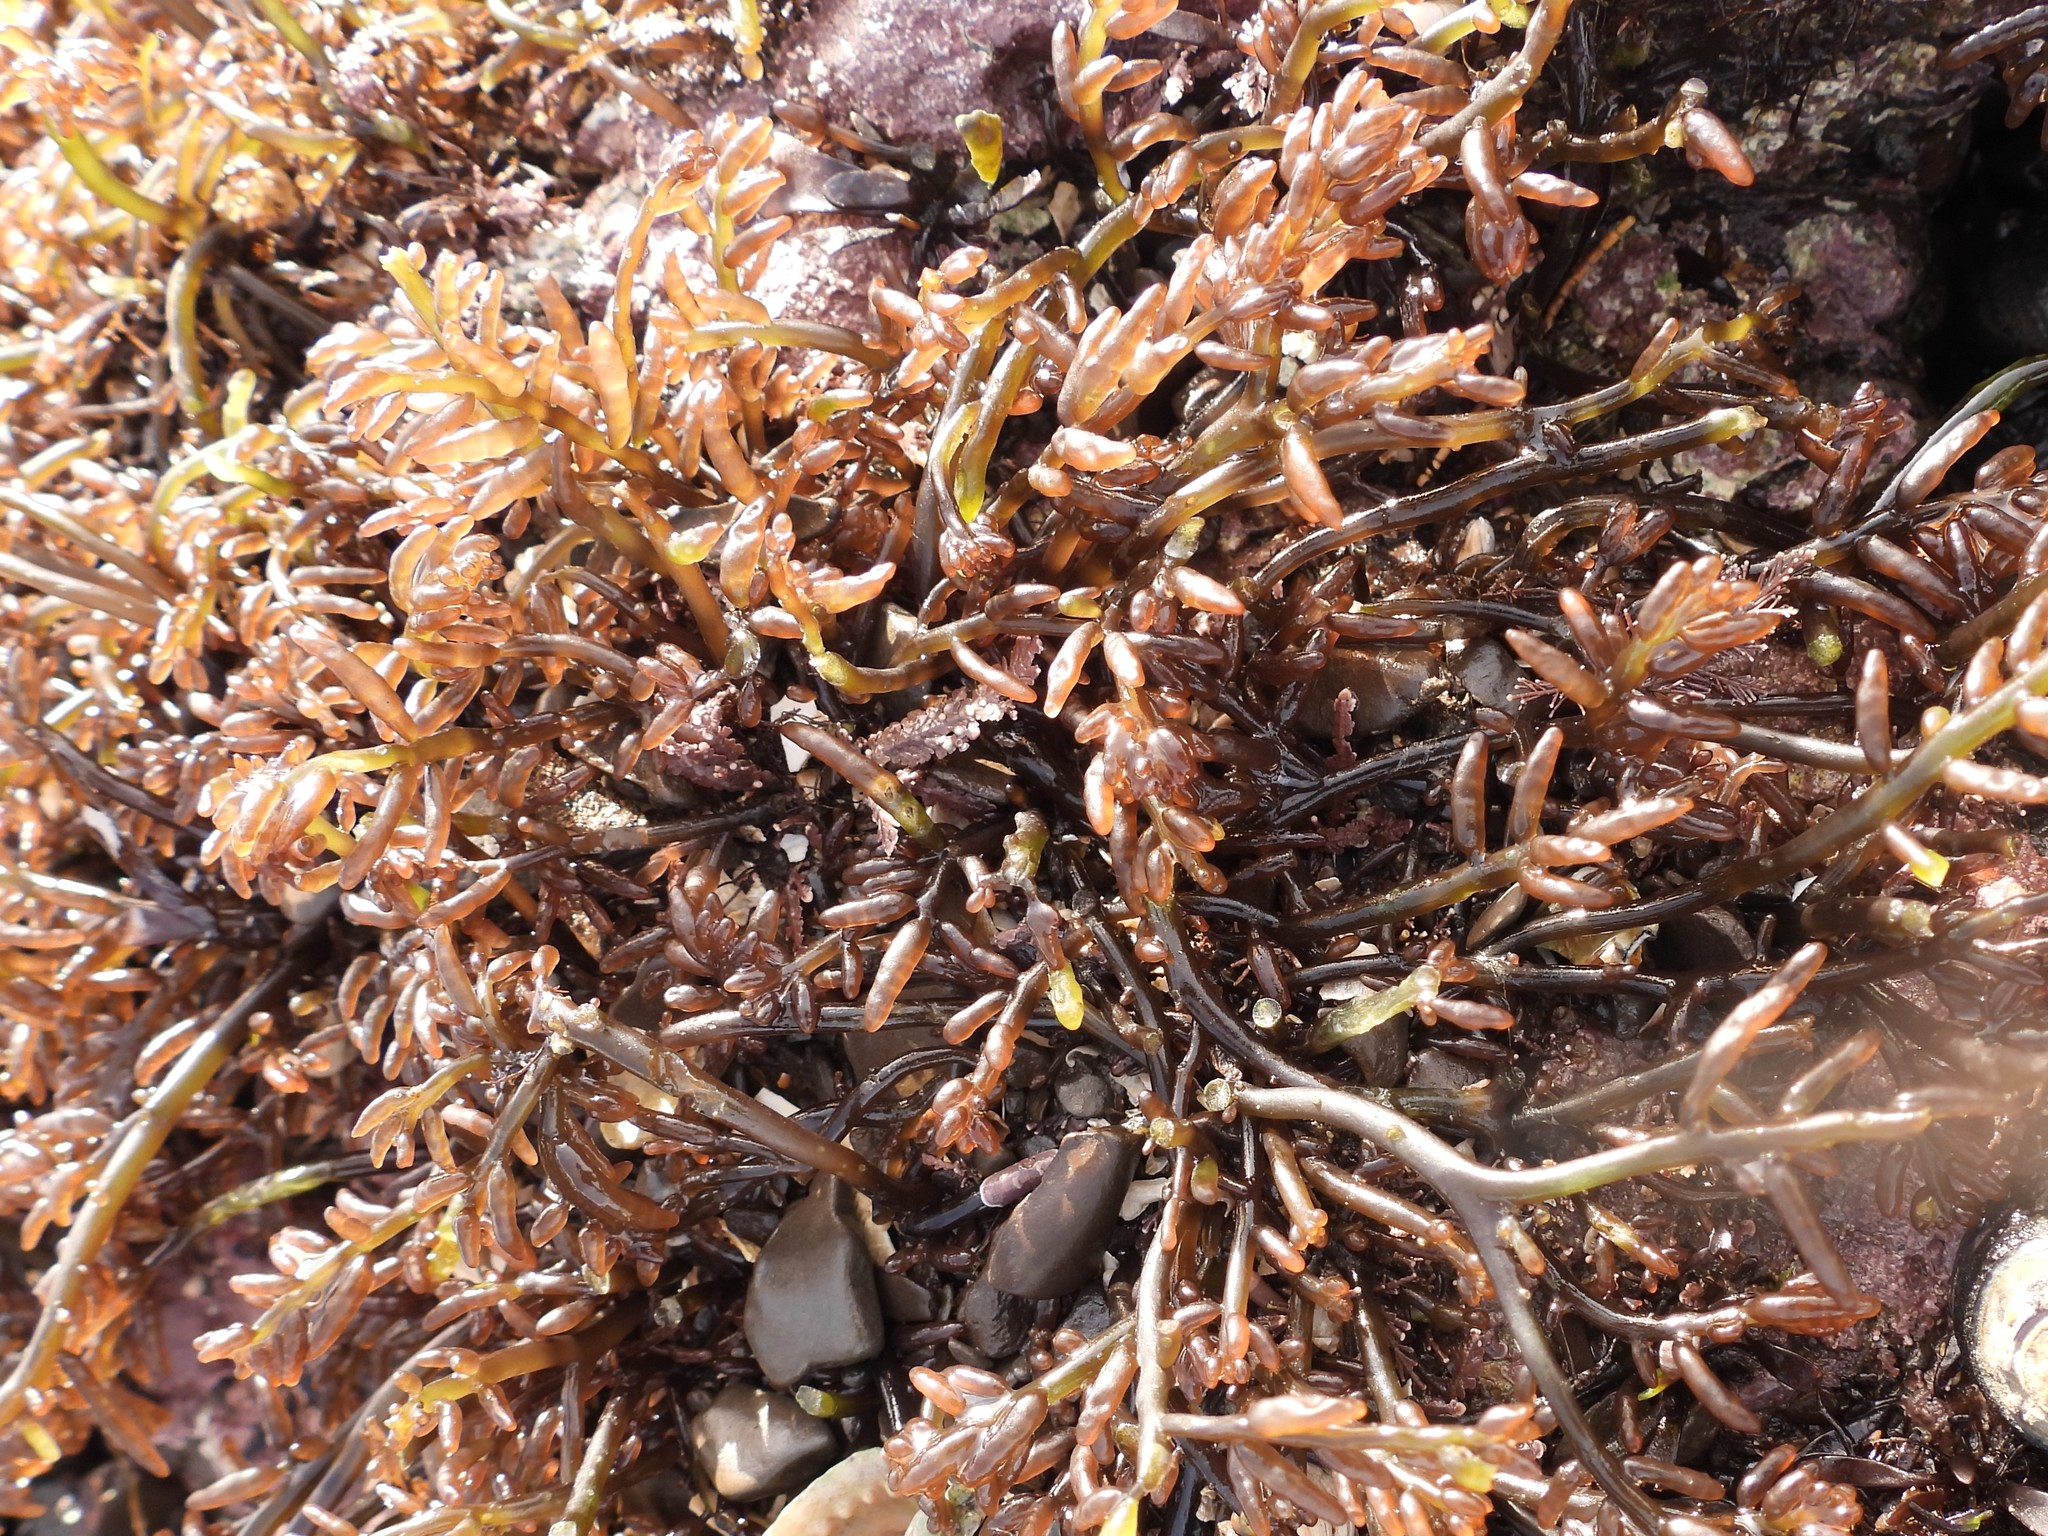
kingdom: Plantae
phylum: Rhodophyta
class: Florideophyceae
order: Rhodymeniales
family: Champiaceae
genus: Neogastroclonium
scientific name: Neogastroclonium subarticulatum
